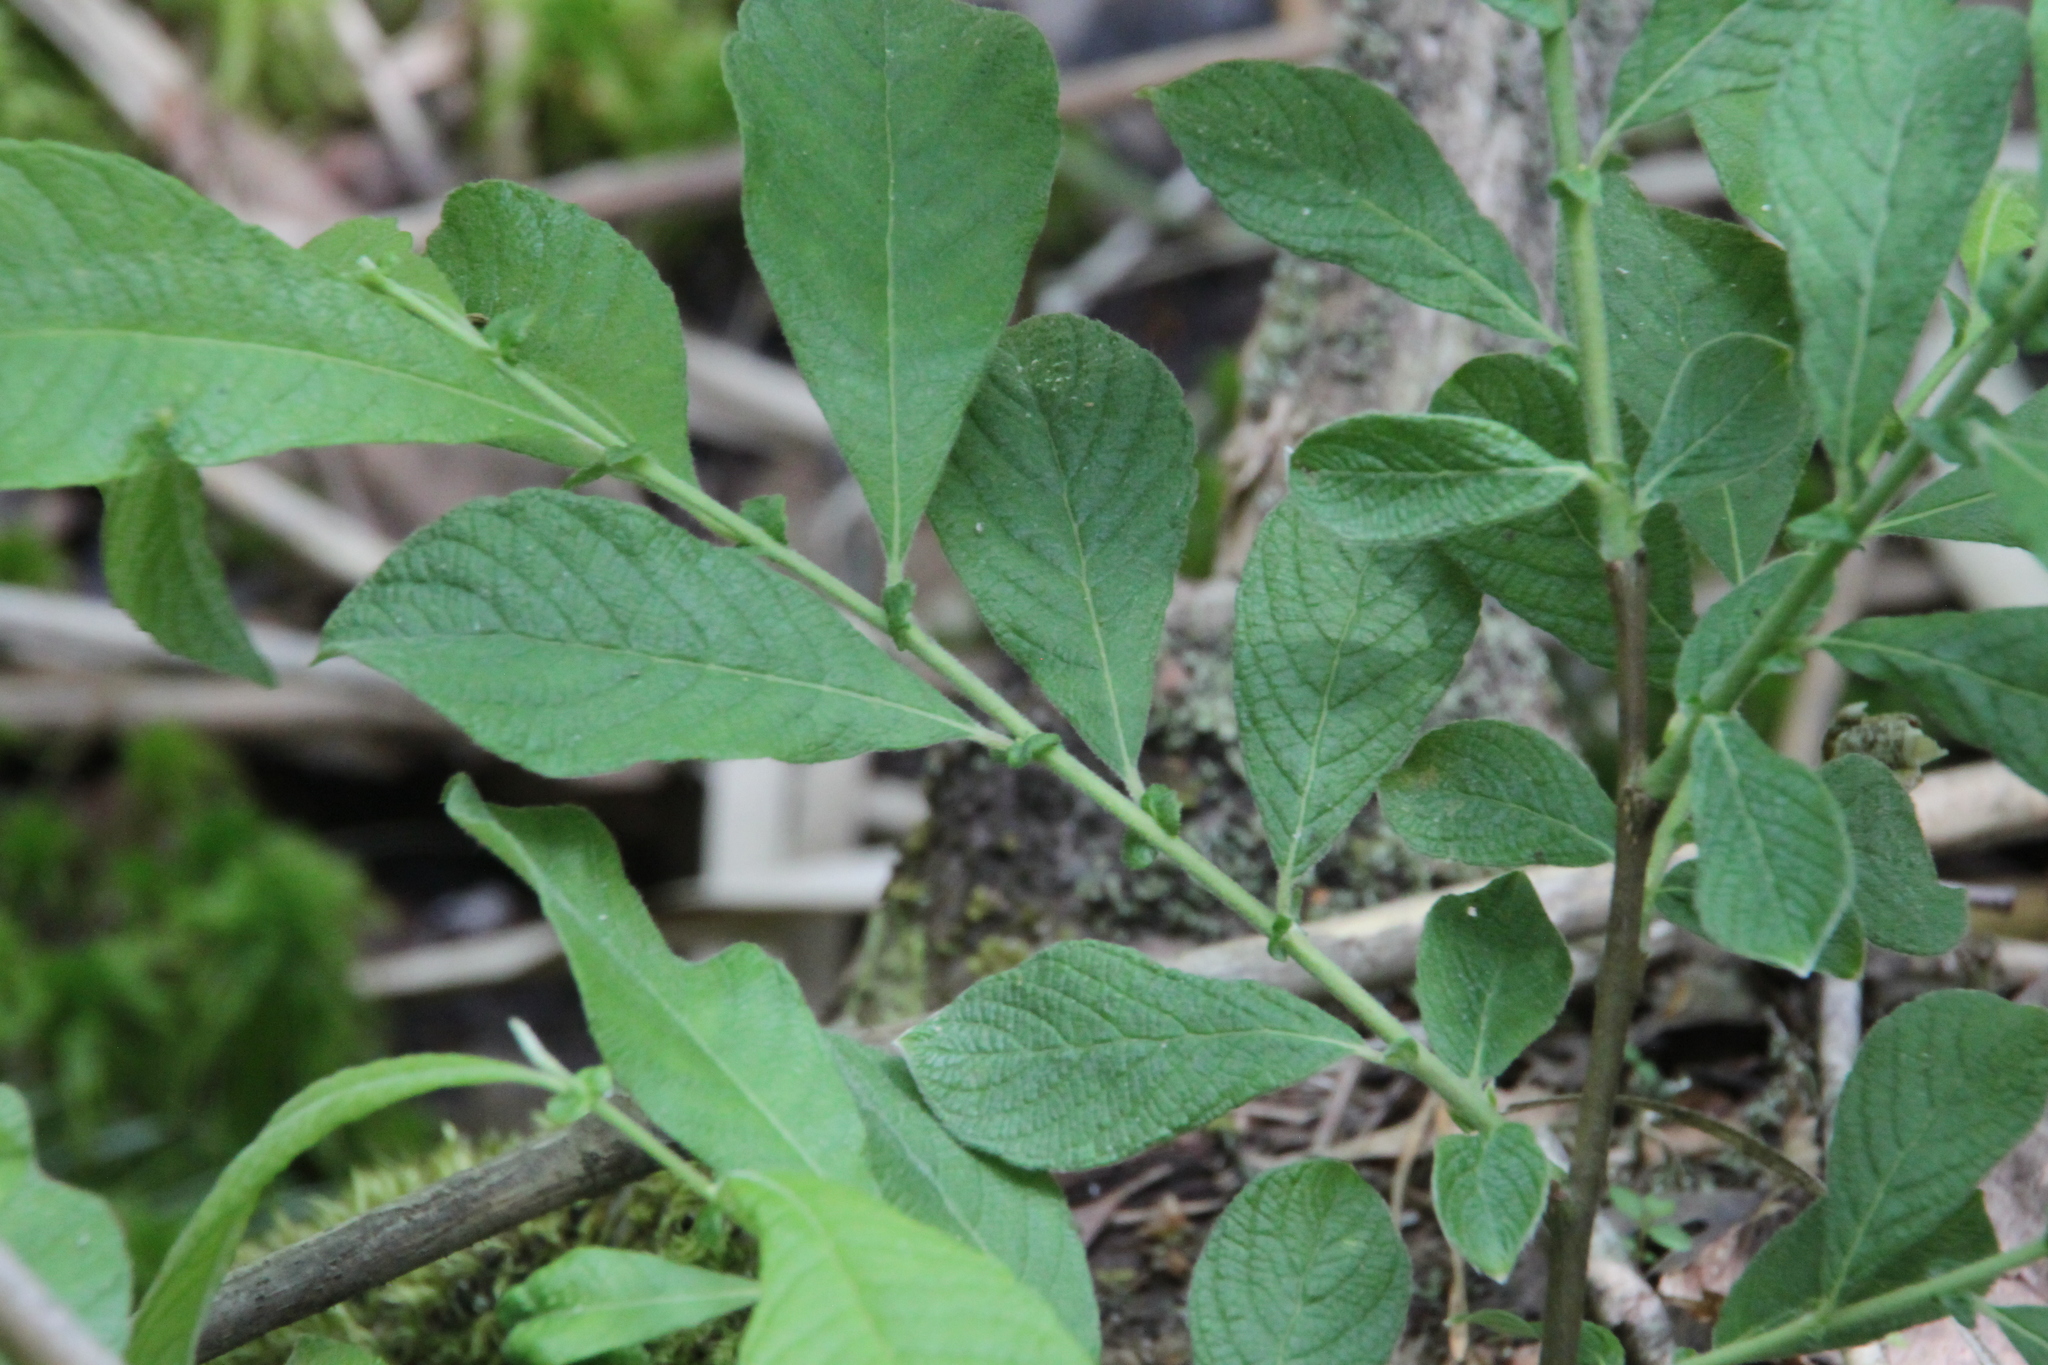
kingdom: Plantae
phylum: Tracheophyta
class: Magnoliopsida
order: Malpighiales
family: Salicaceae
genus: Salix
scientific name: Salix aurita
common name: Eared willow
